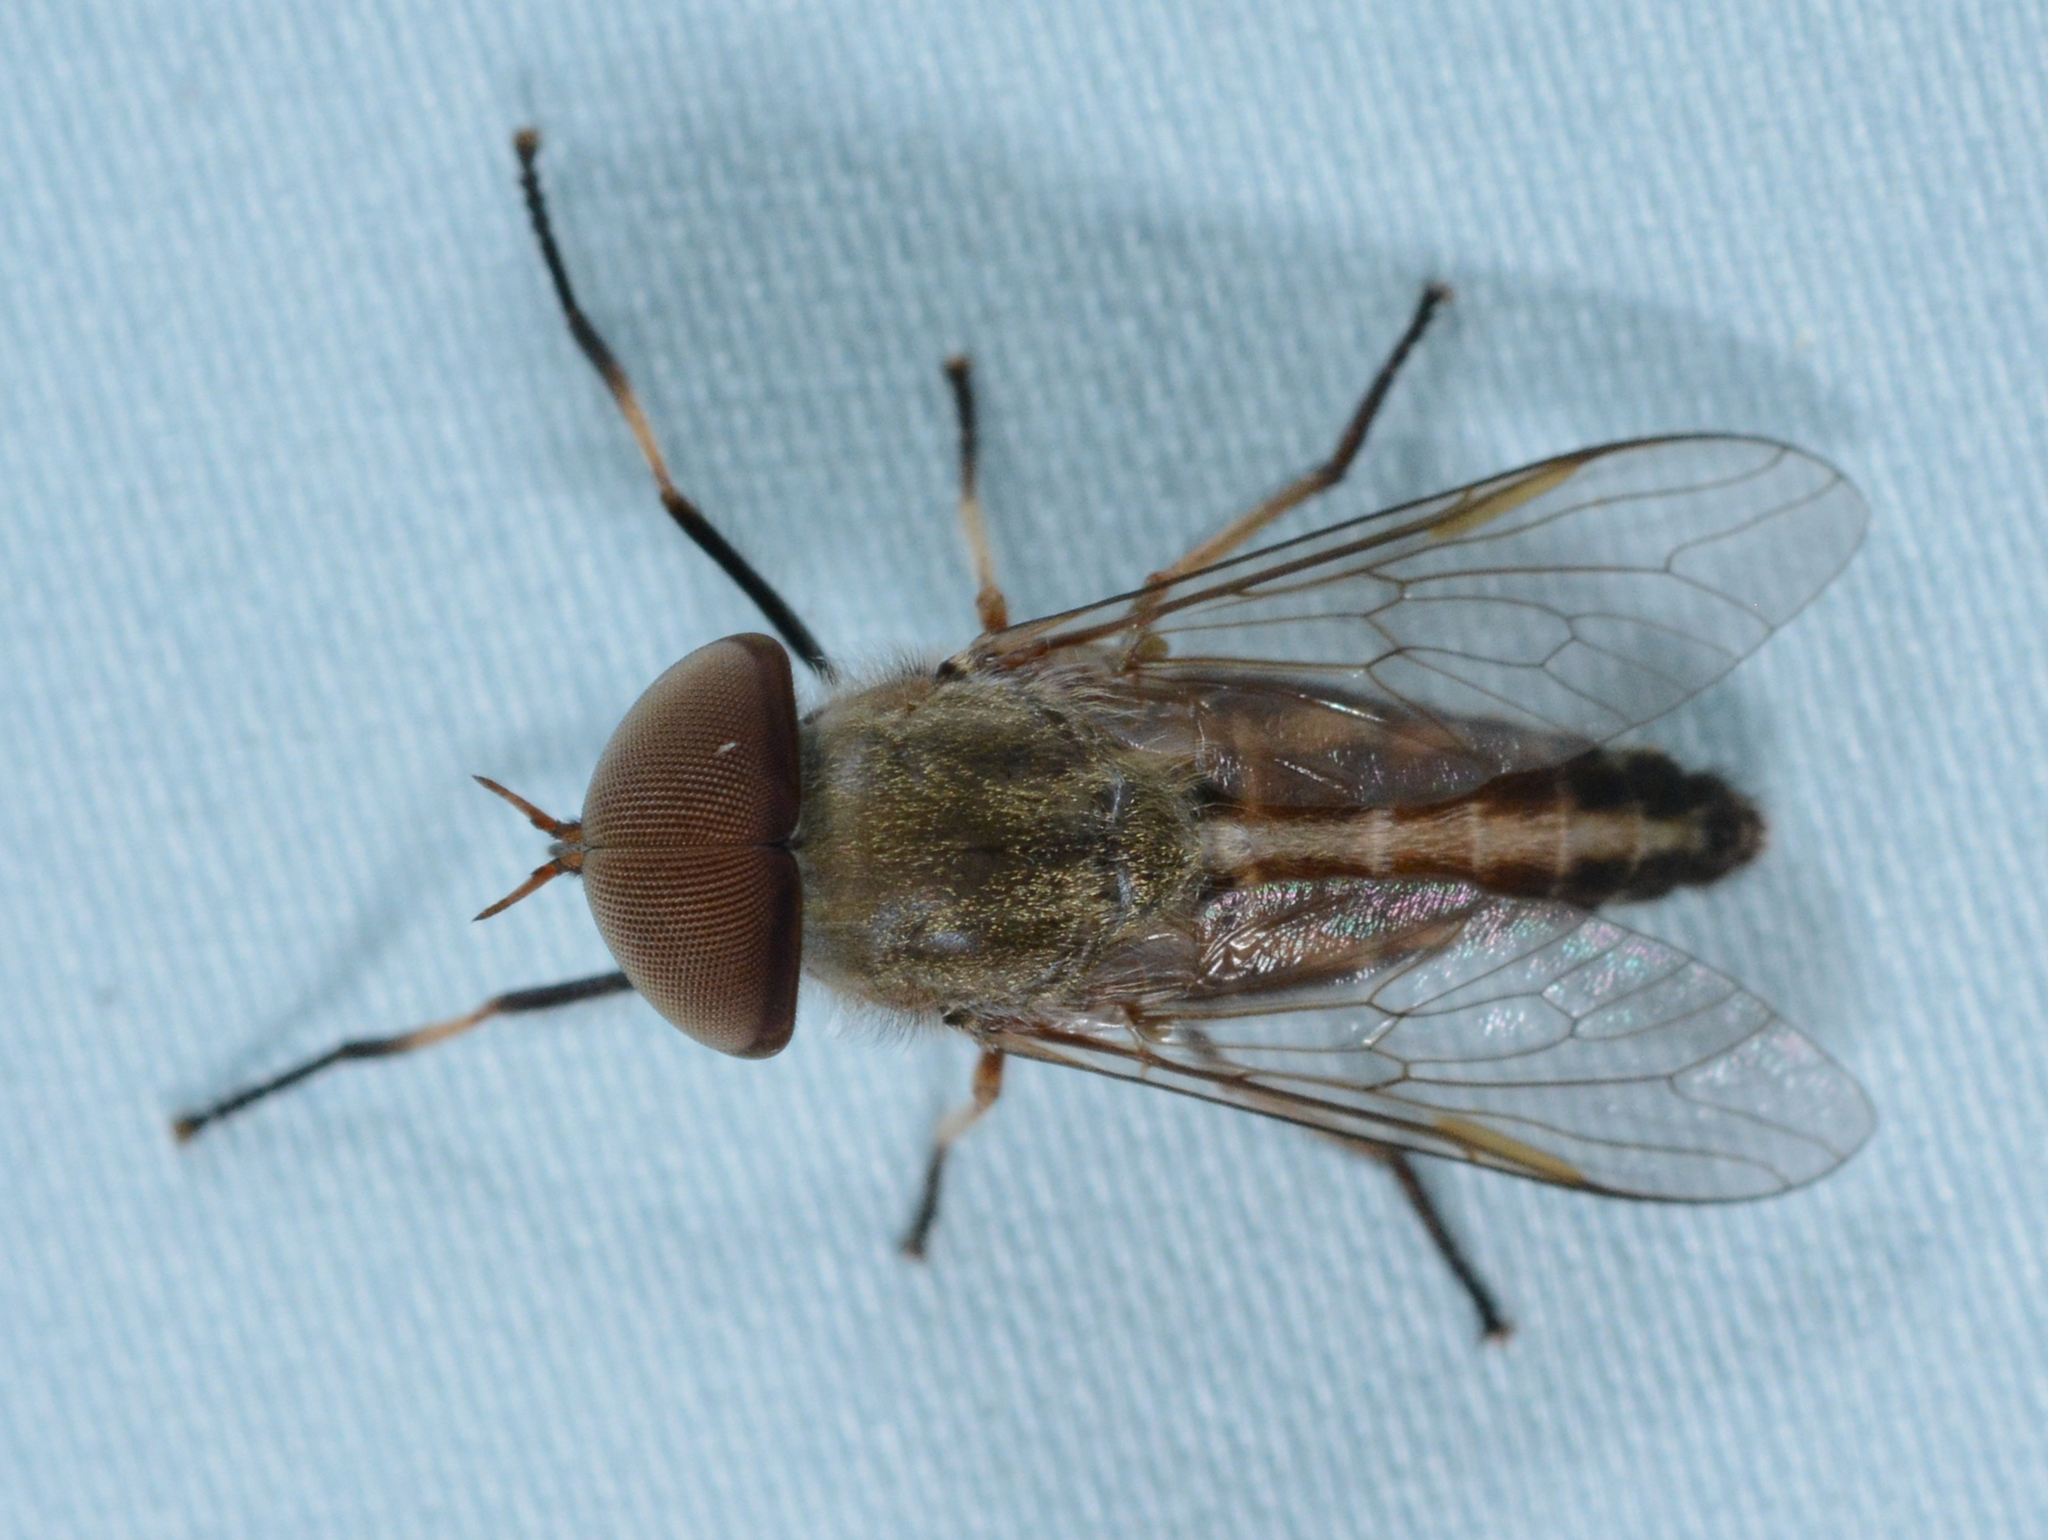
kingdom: Animalia
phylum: Arthropoda
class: Insecta
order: Diptera
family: Tabanidae
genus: Tabanus
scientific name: Tabanus lineola
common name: Striped horse fly
